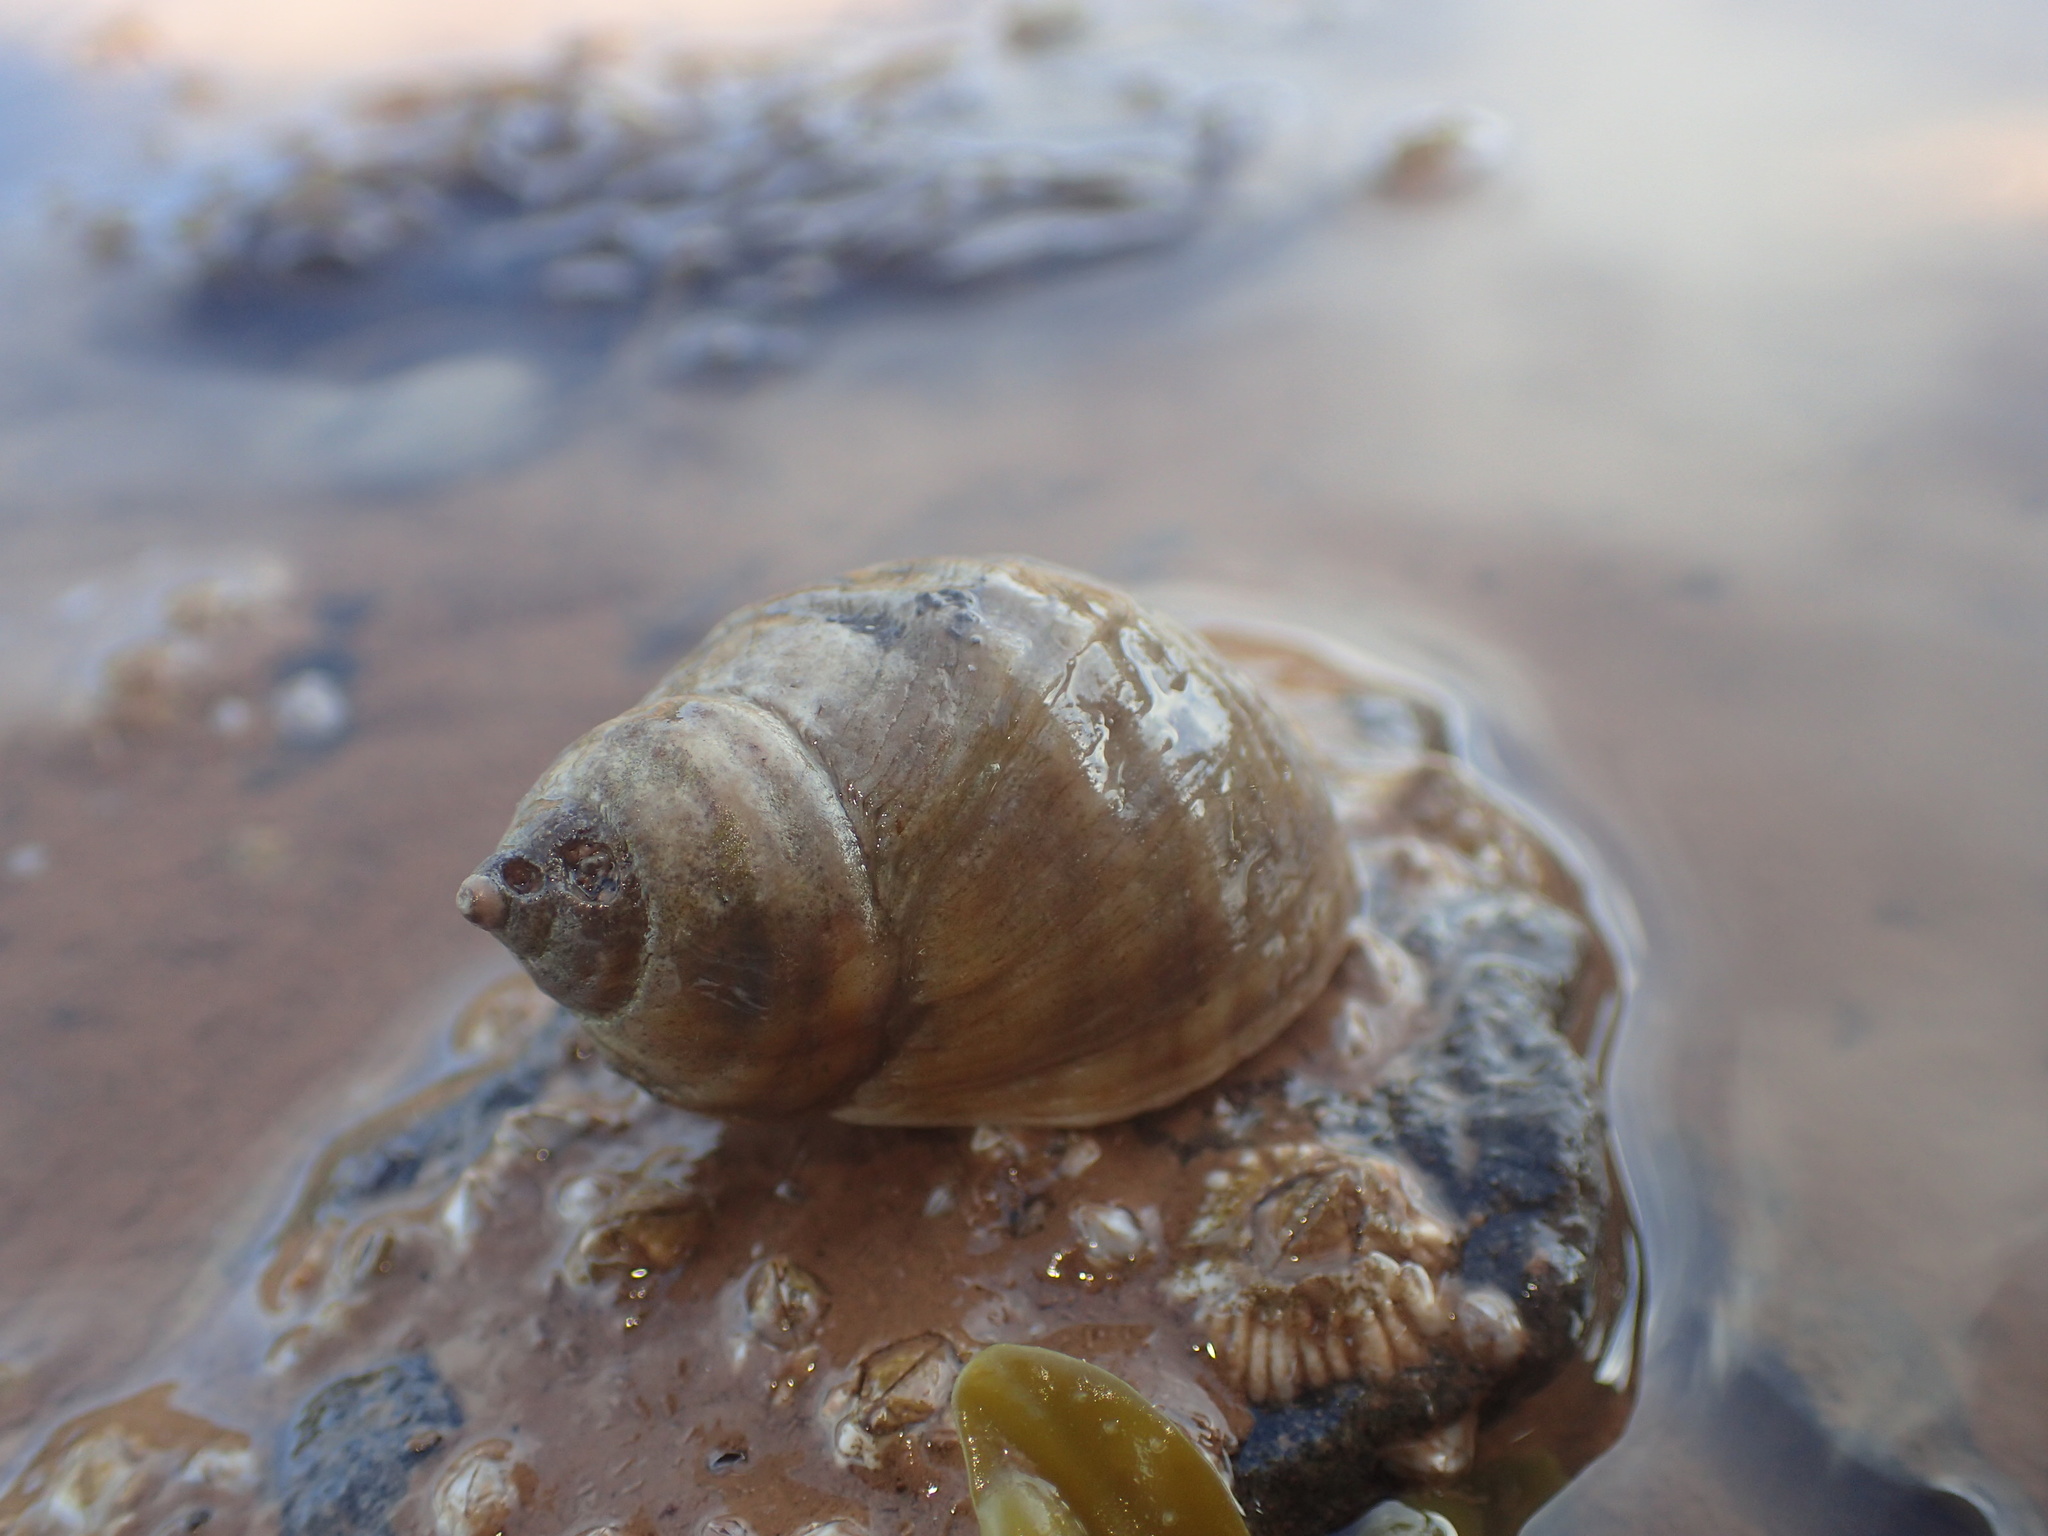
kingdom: Animalia
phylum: Mollusca
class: Gastropoda
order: Neogastropoda
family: Muricidae
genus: Nucella
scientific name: Nucella lapillus
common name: Dog whelk
